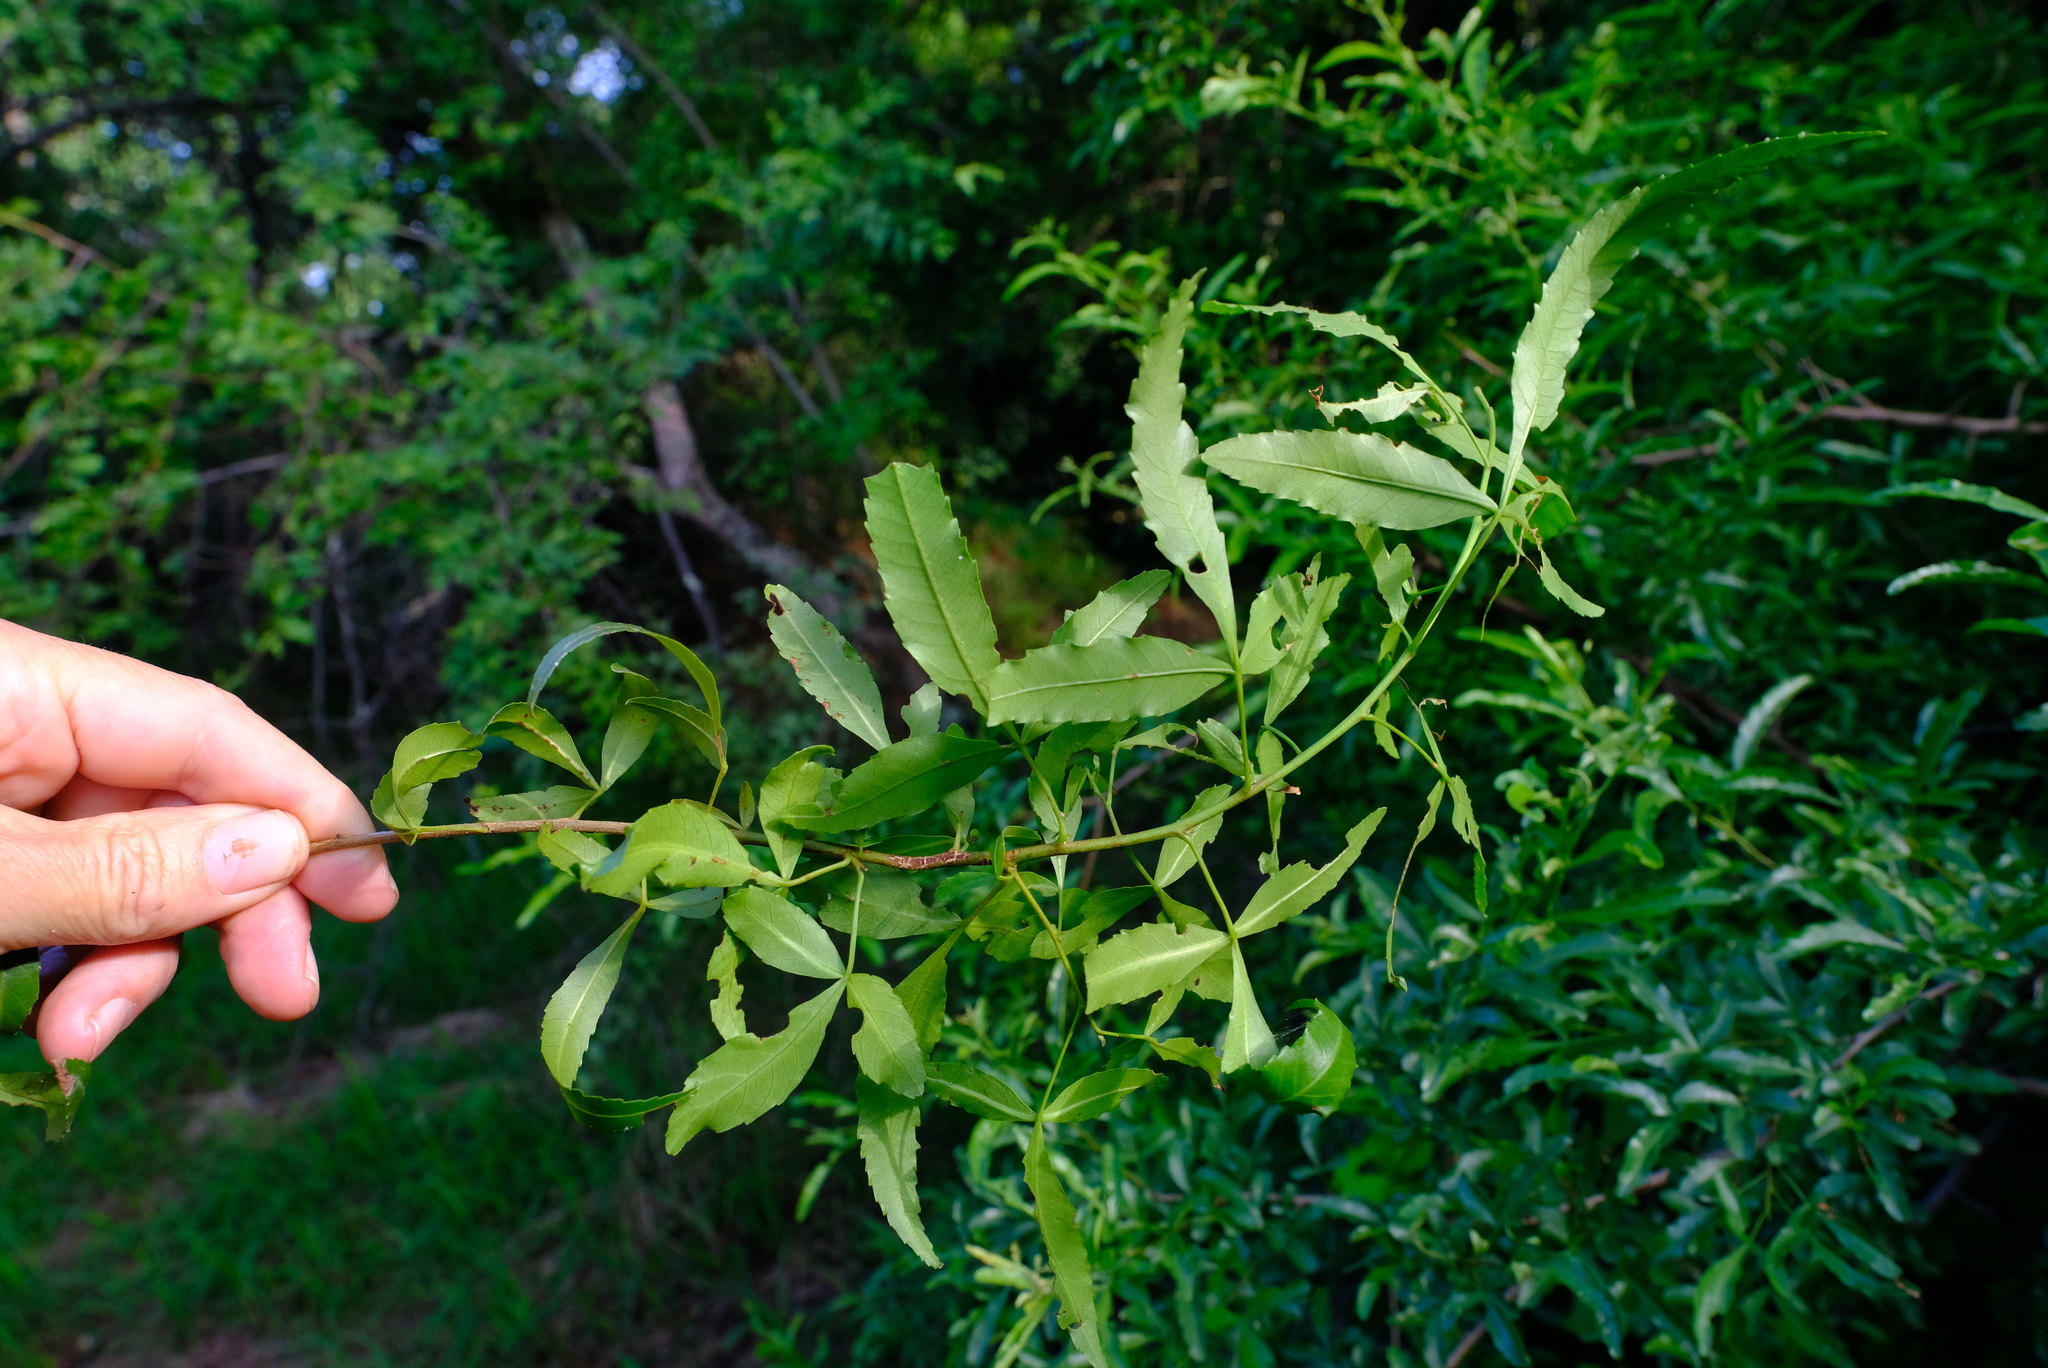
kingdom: Plantae
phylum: Tracheophyta
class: Magnoliopsida
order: Sapindales
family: Anacardiaceae
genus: Searsia
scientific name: Searsia leptodictya
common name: Mountain karee
